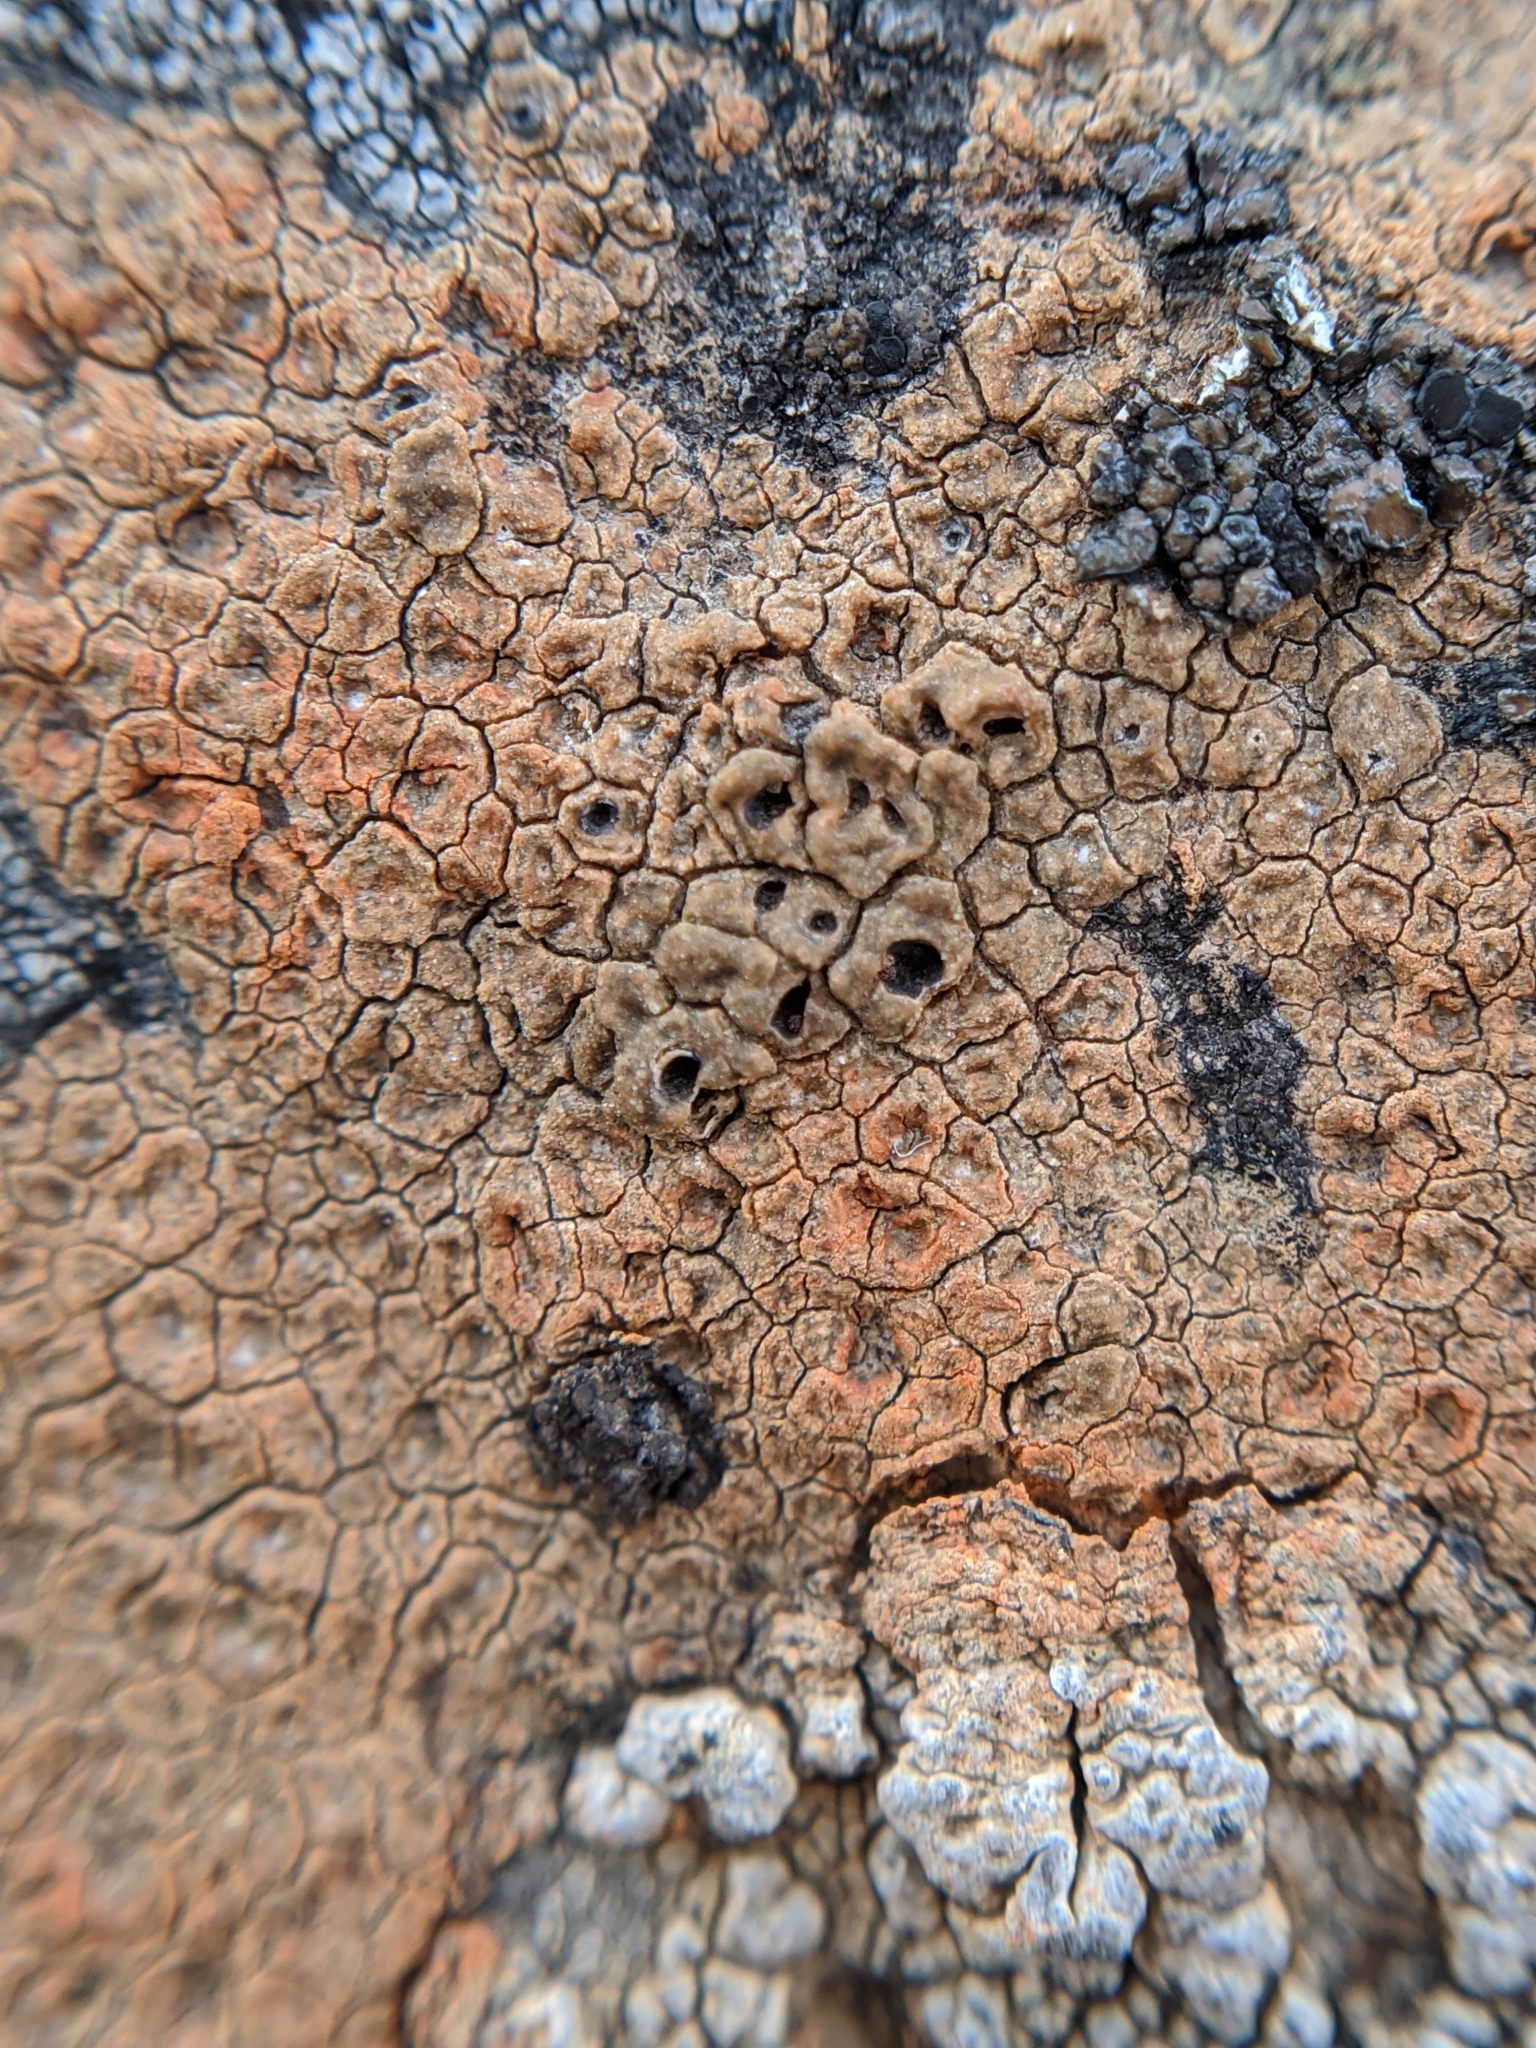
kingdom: Fungi
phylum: Ascomycota
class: Lecanoromycetes
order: Pertusariales
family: Megasporaceae
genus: Aspicilia
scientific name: Aspicilia aurantiaca
